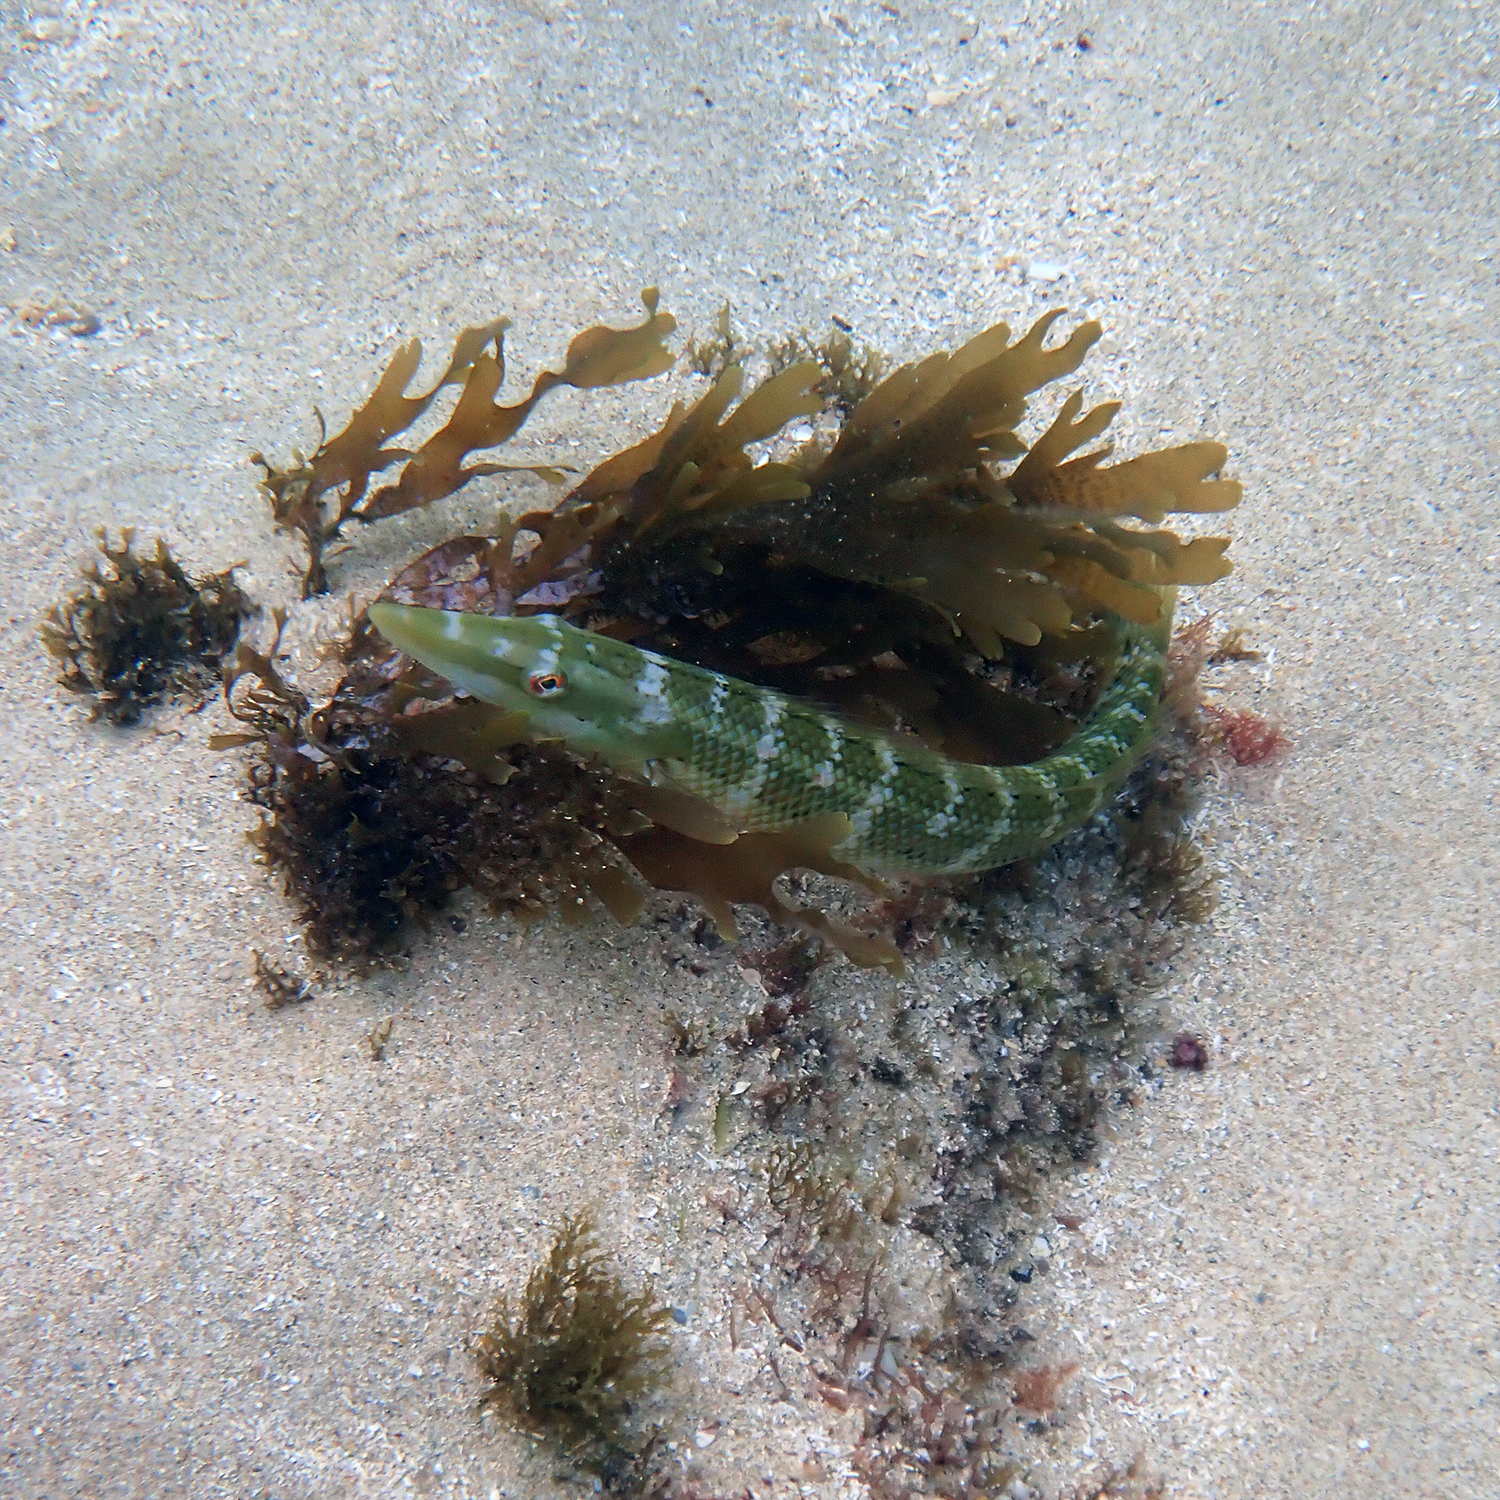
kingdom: Animalia
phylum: Chordata
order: Perciformes
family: Labridae
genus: Cheilio
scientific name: Cheilio inermis
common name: Cigar wrasse
